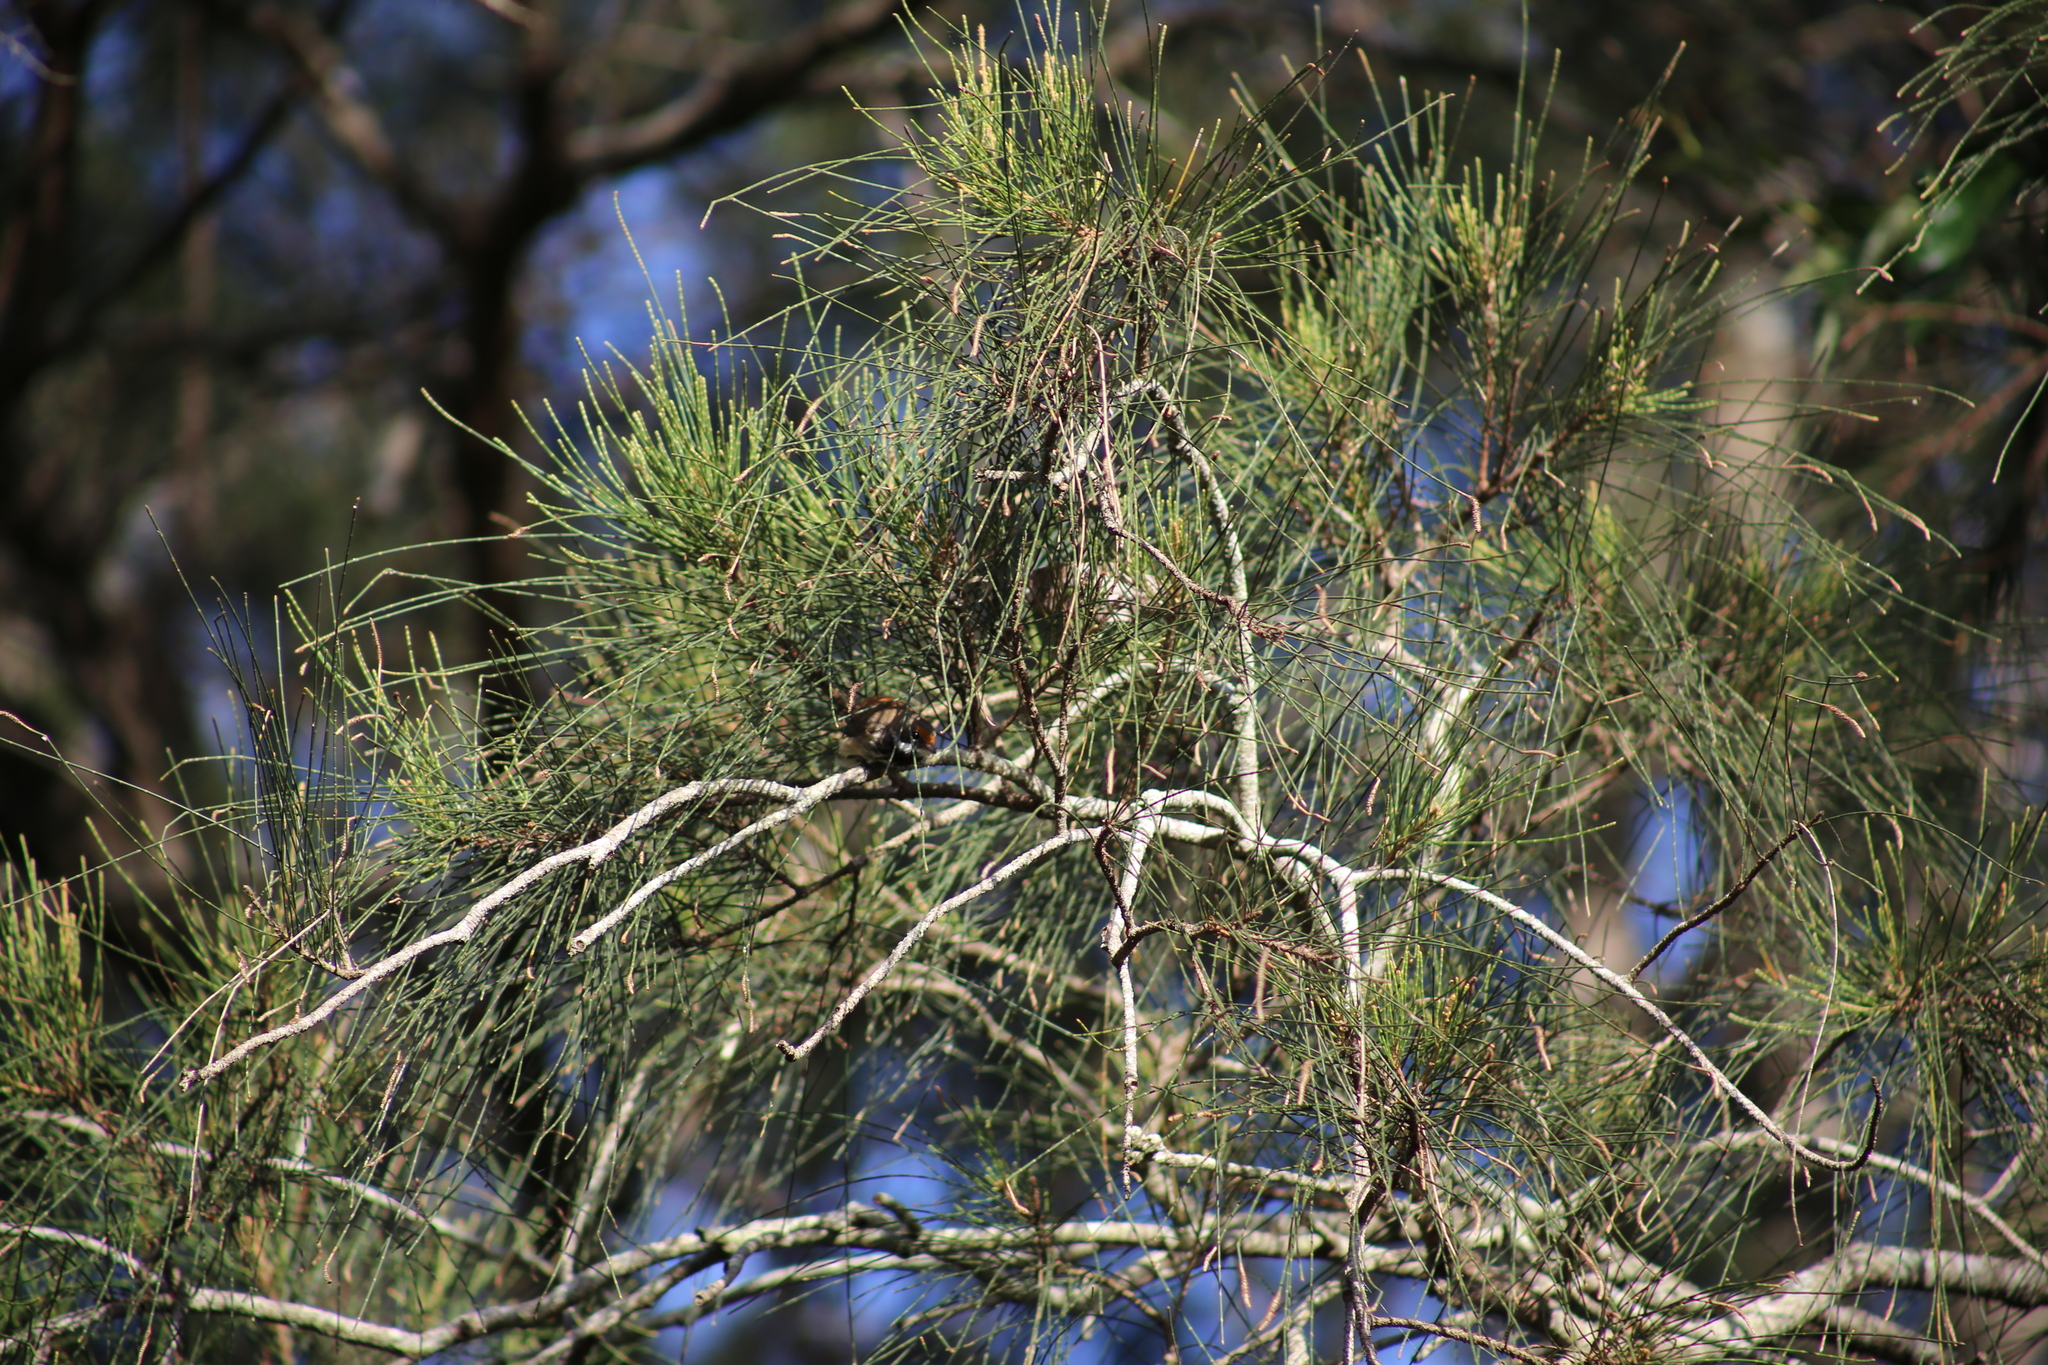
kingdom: Animalia
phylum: Chordata
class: Aves
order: Passeriformes
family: Rhipiduridae
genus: Rhipidura
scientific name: Rhipidura rufifrons
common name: Rufous fantail
